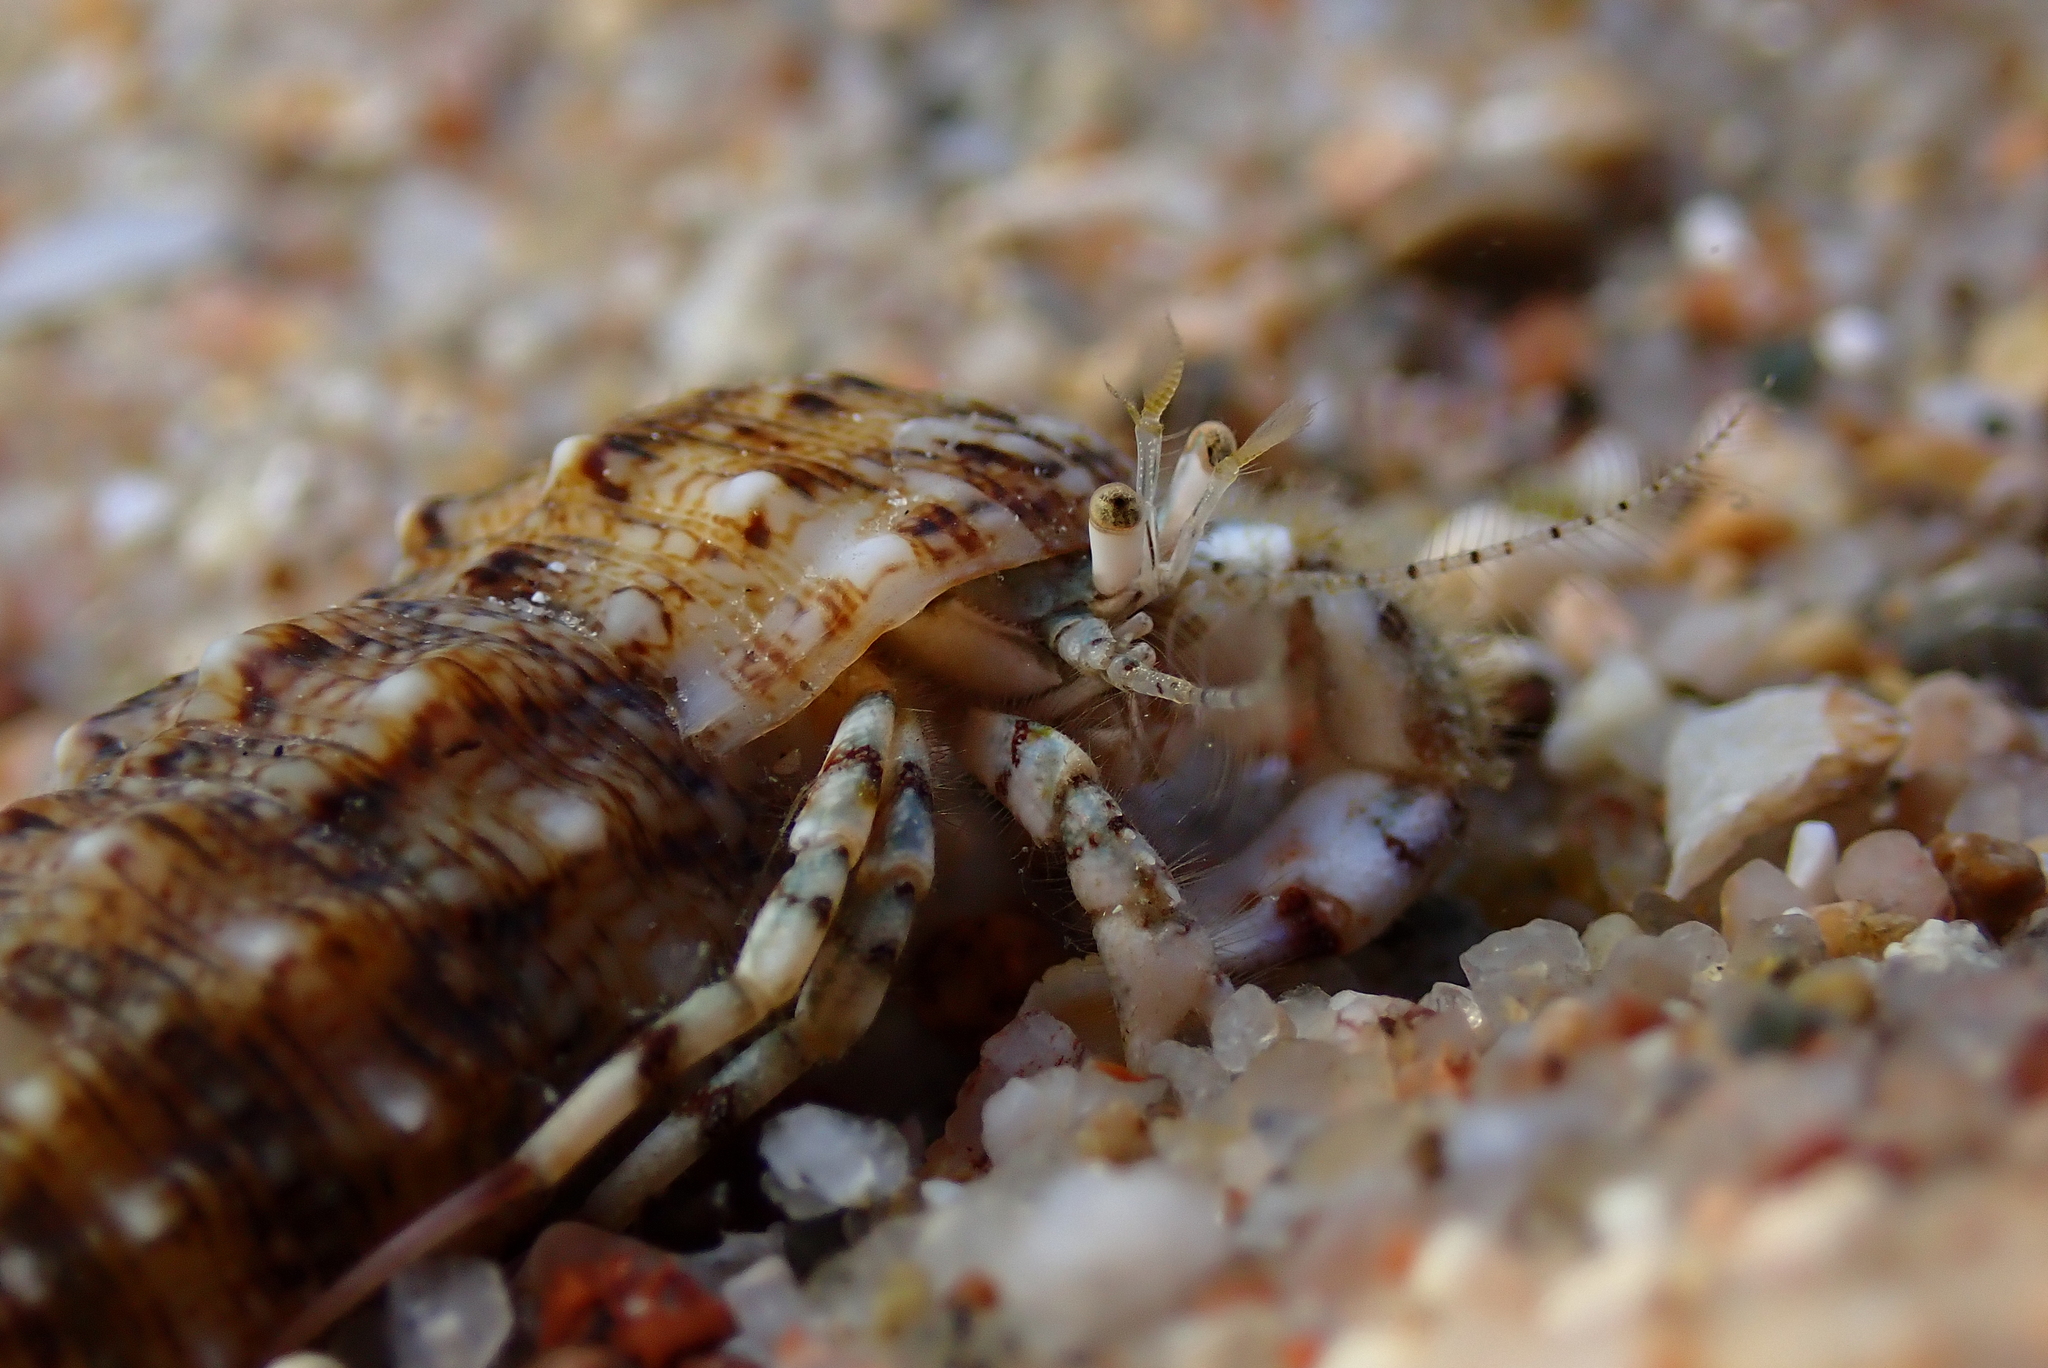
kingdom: Animalia
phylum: Arthropoda
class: Malacostraca
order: Decapoda
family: Diogenidae
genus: Diogenes
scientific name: Diogenes pugilator
